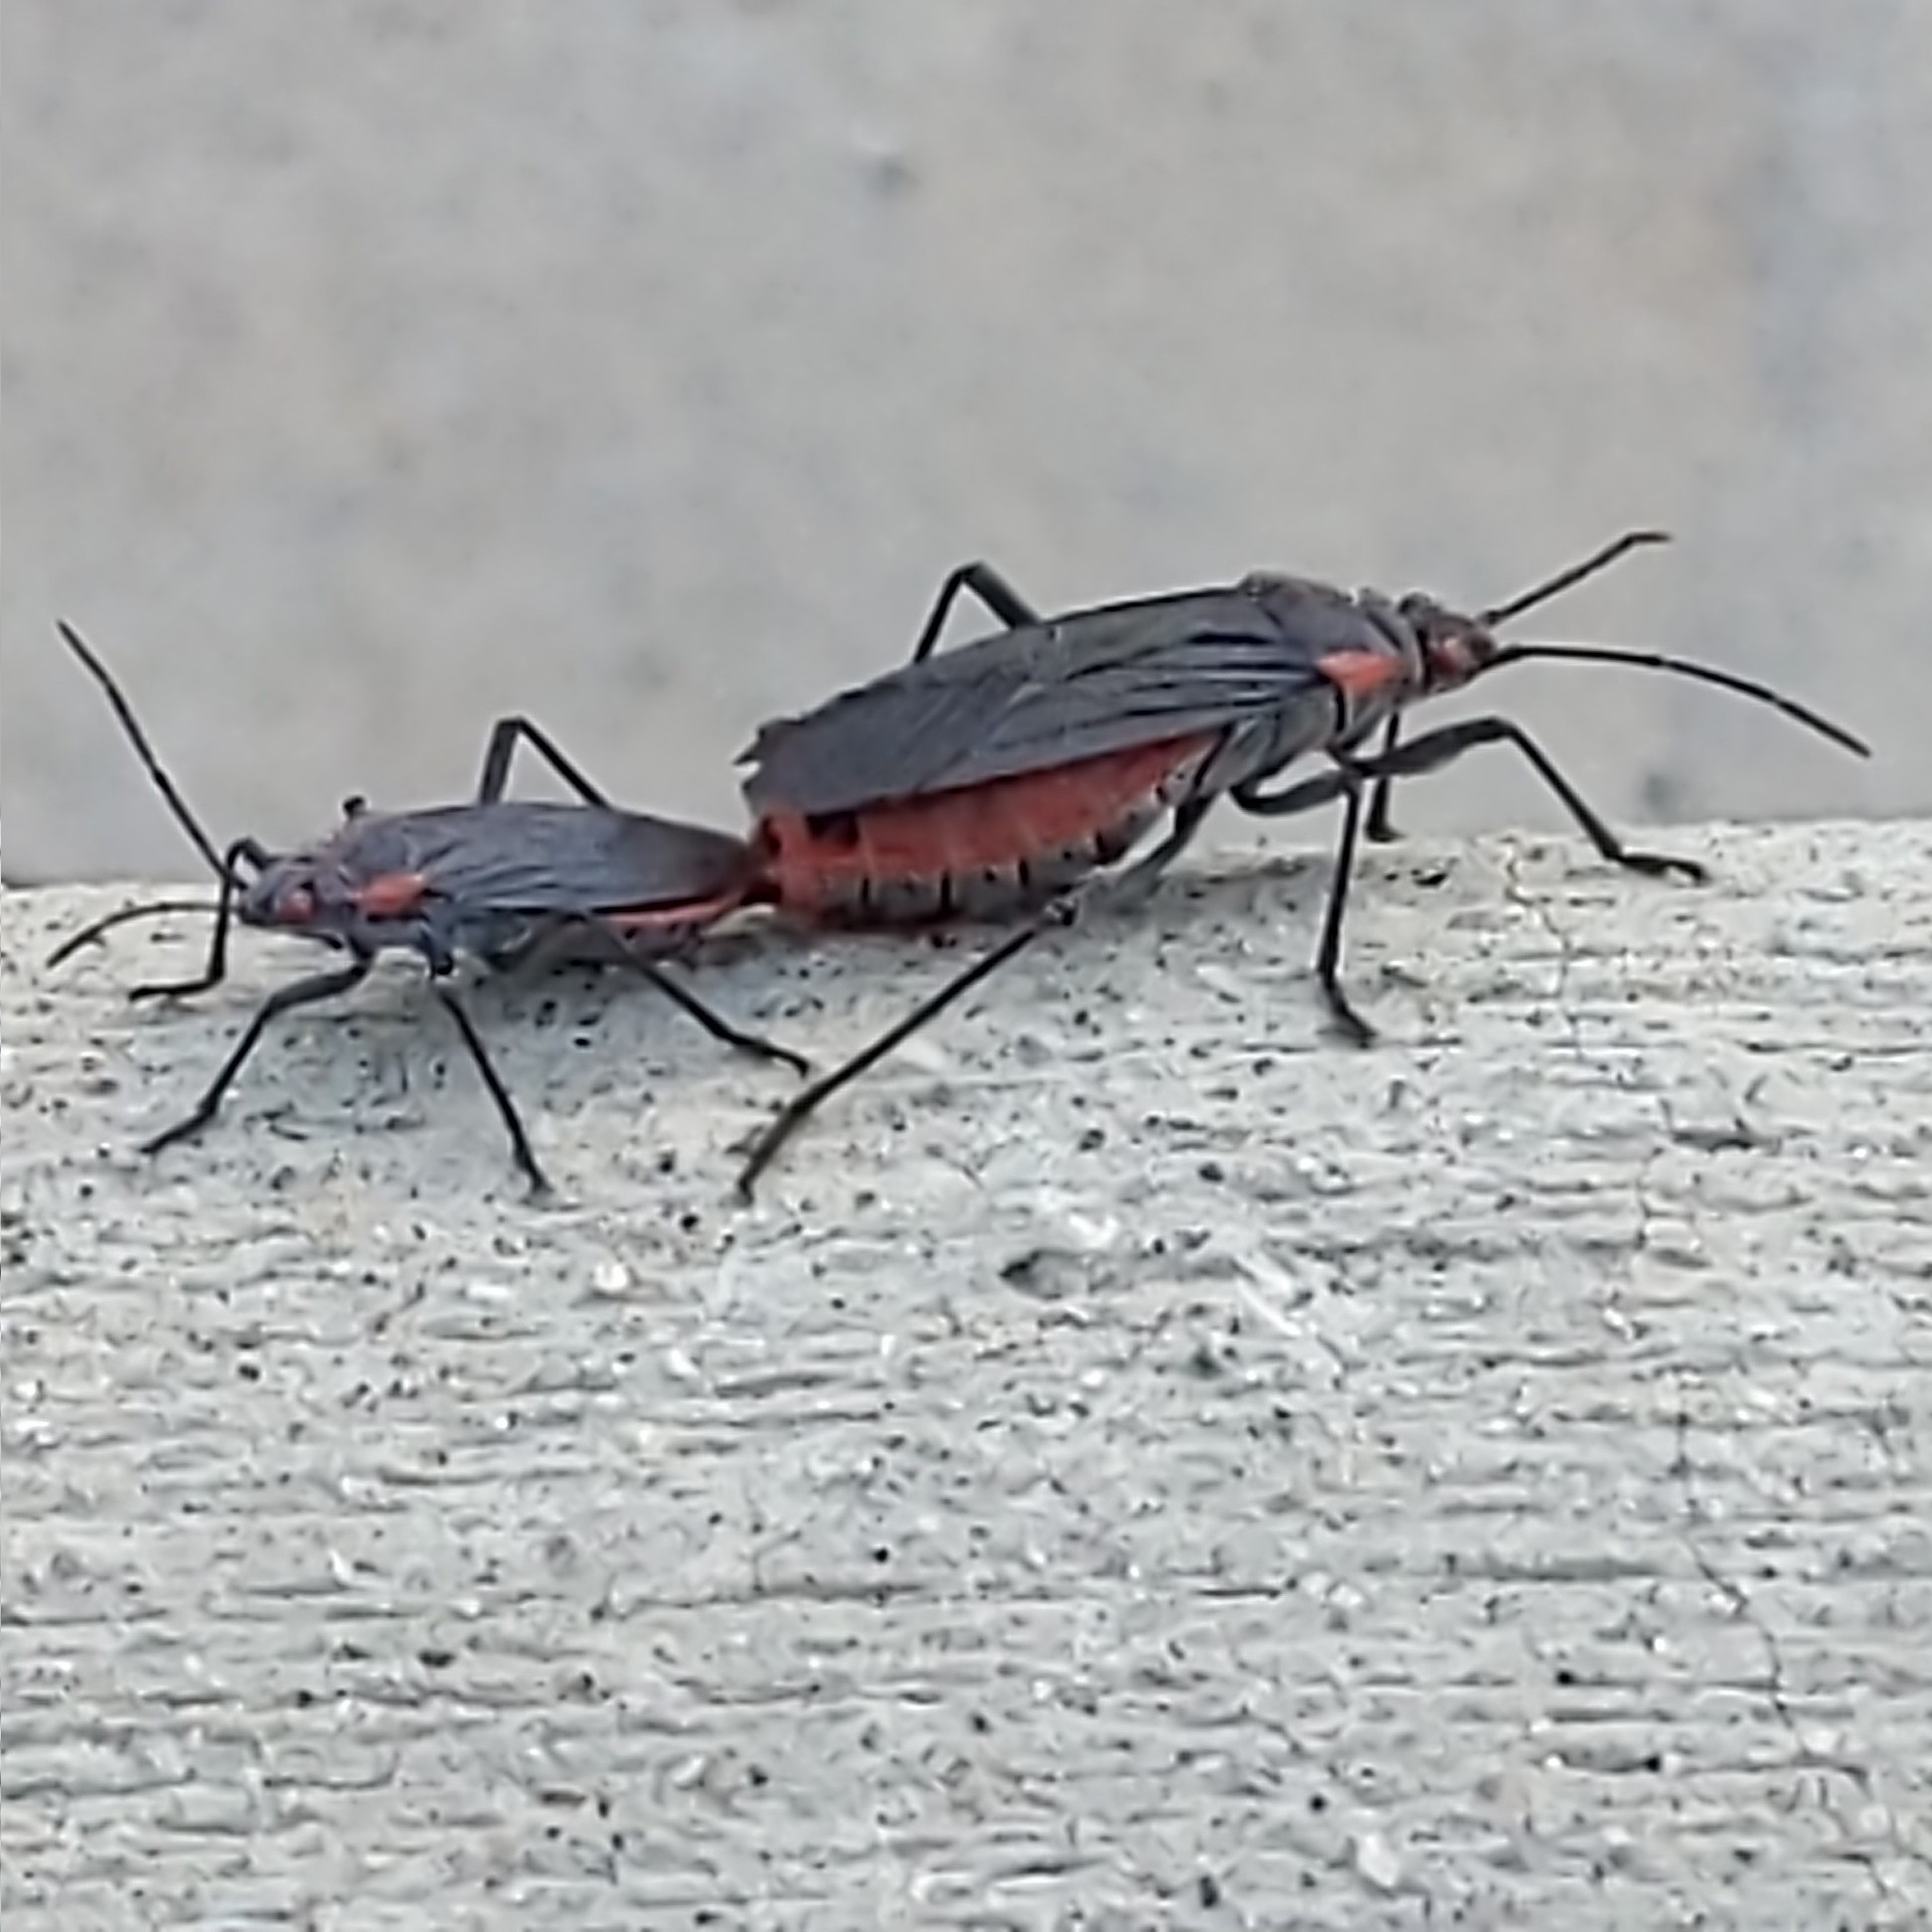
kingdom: Animalia
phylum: Arthropoda
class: Insecta
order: Hemiptera
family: Rhopalidae
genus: Jadera
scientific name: Jadera haematoloma
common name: Red-shouldered bug
